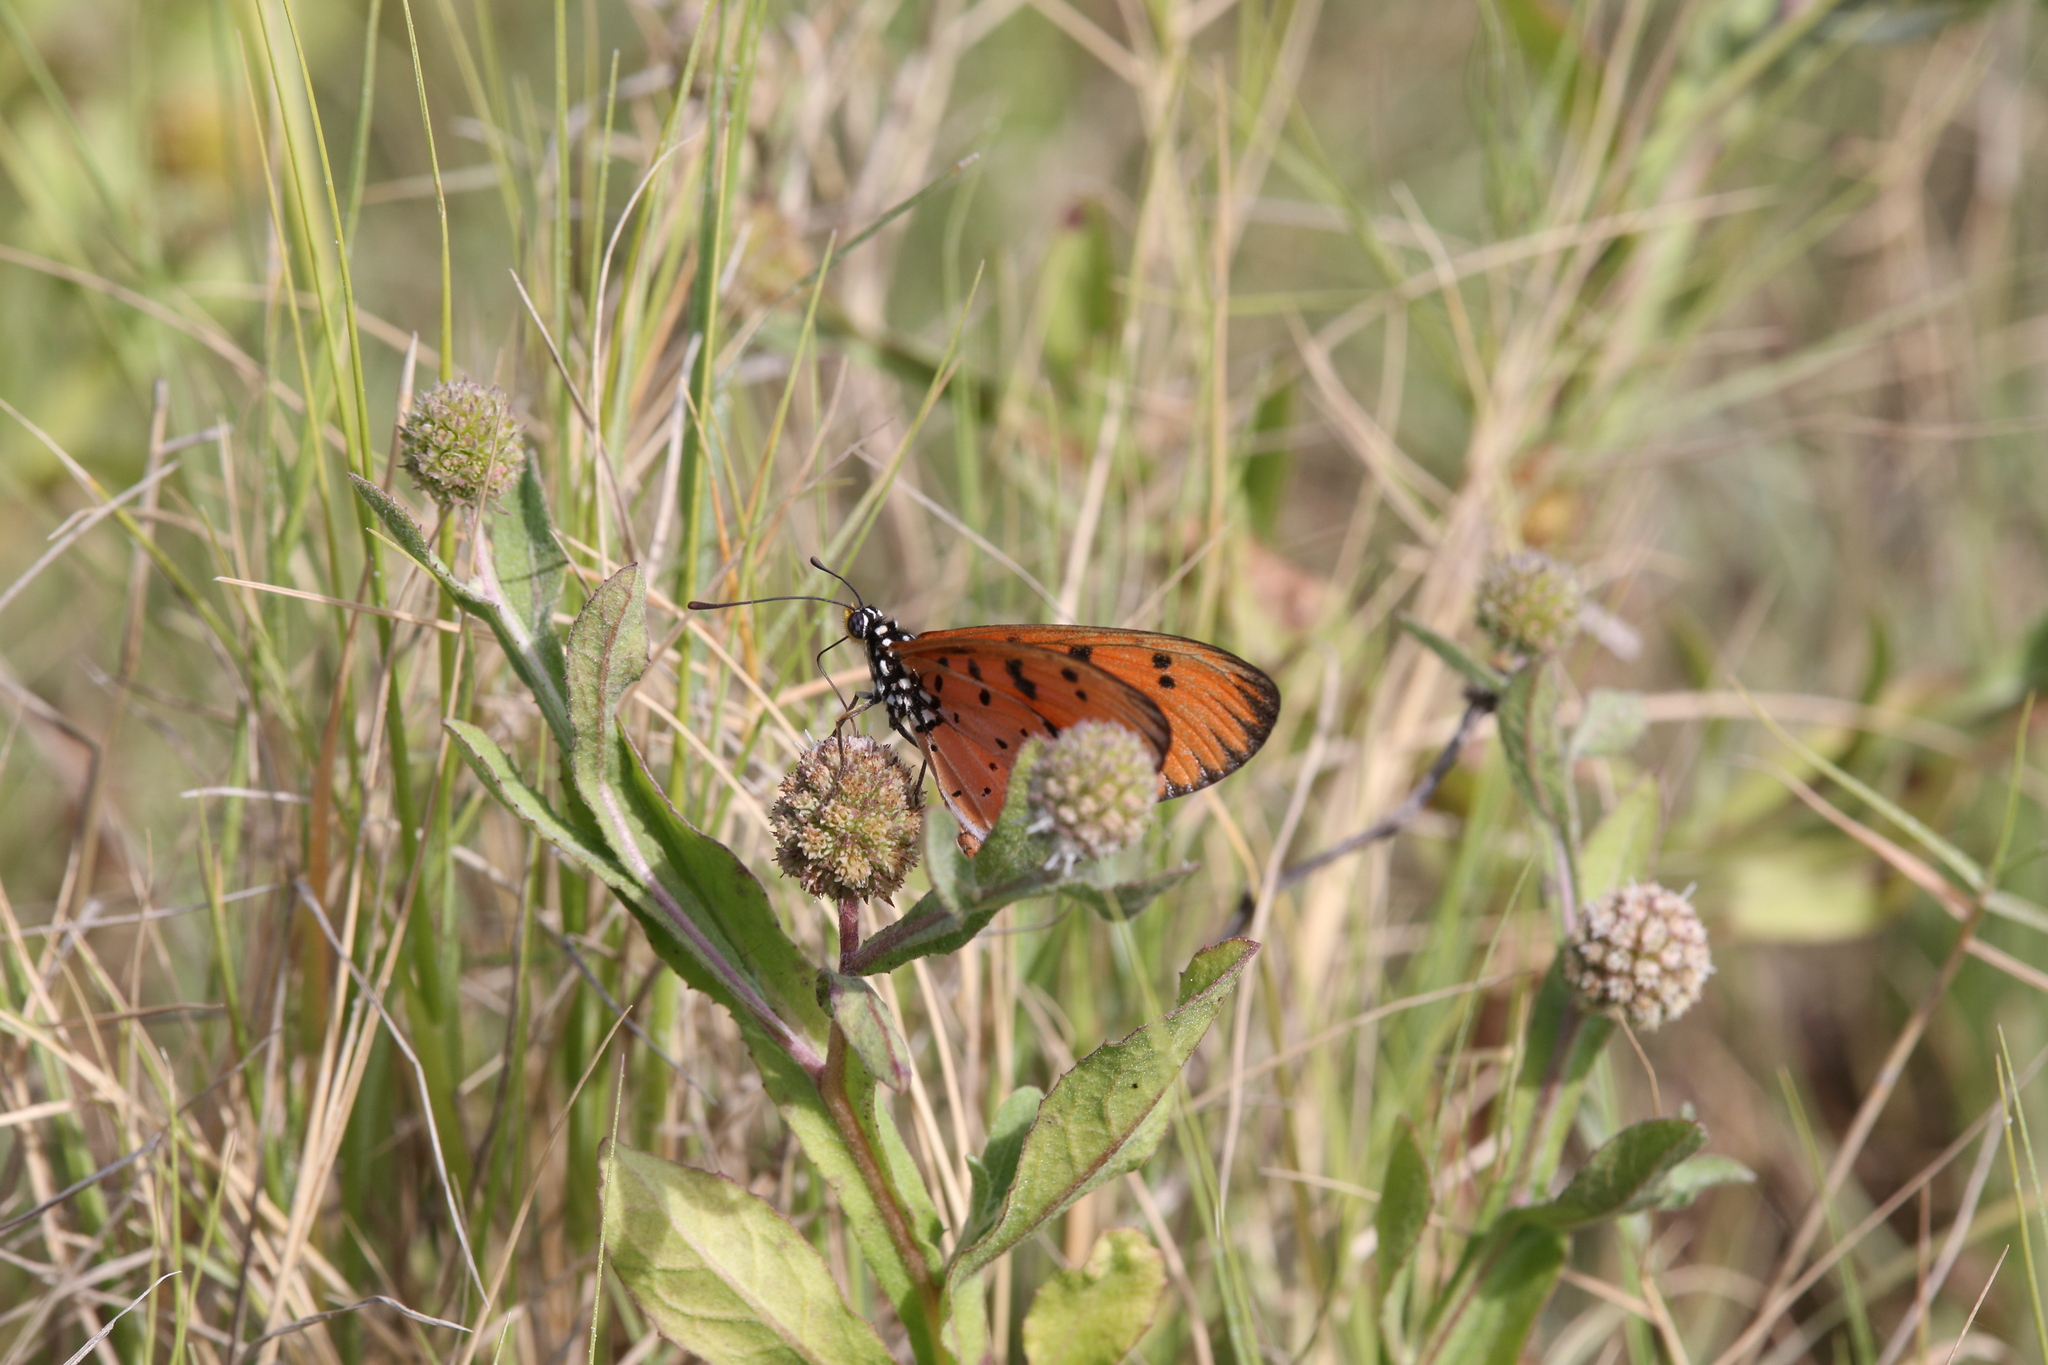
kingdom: Animalia
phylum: Arthropoda
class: Insecta
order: Lepidoptera
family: Nymphalidae
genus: Acraea
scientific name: Acraea terpsicore
